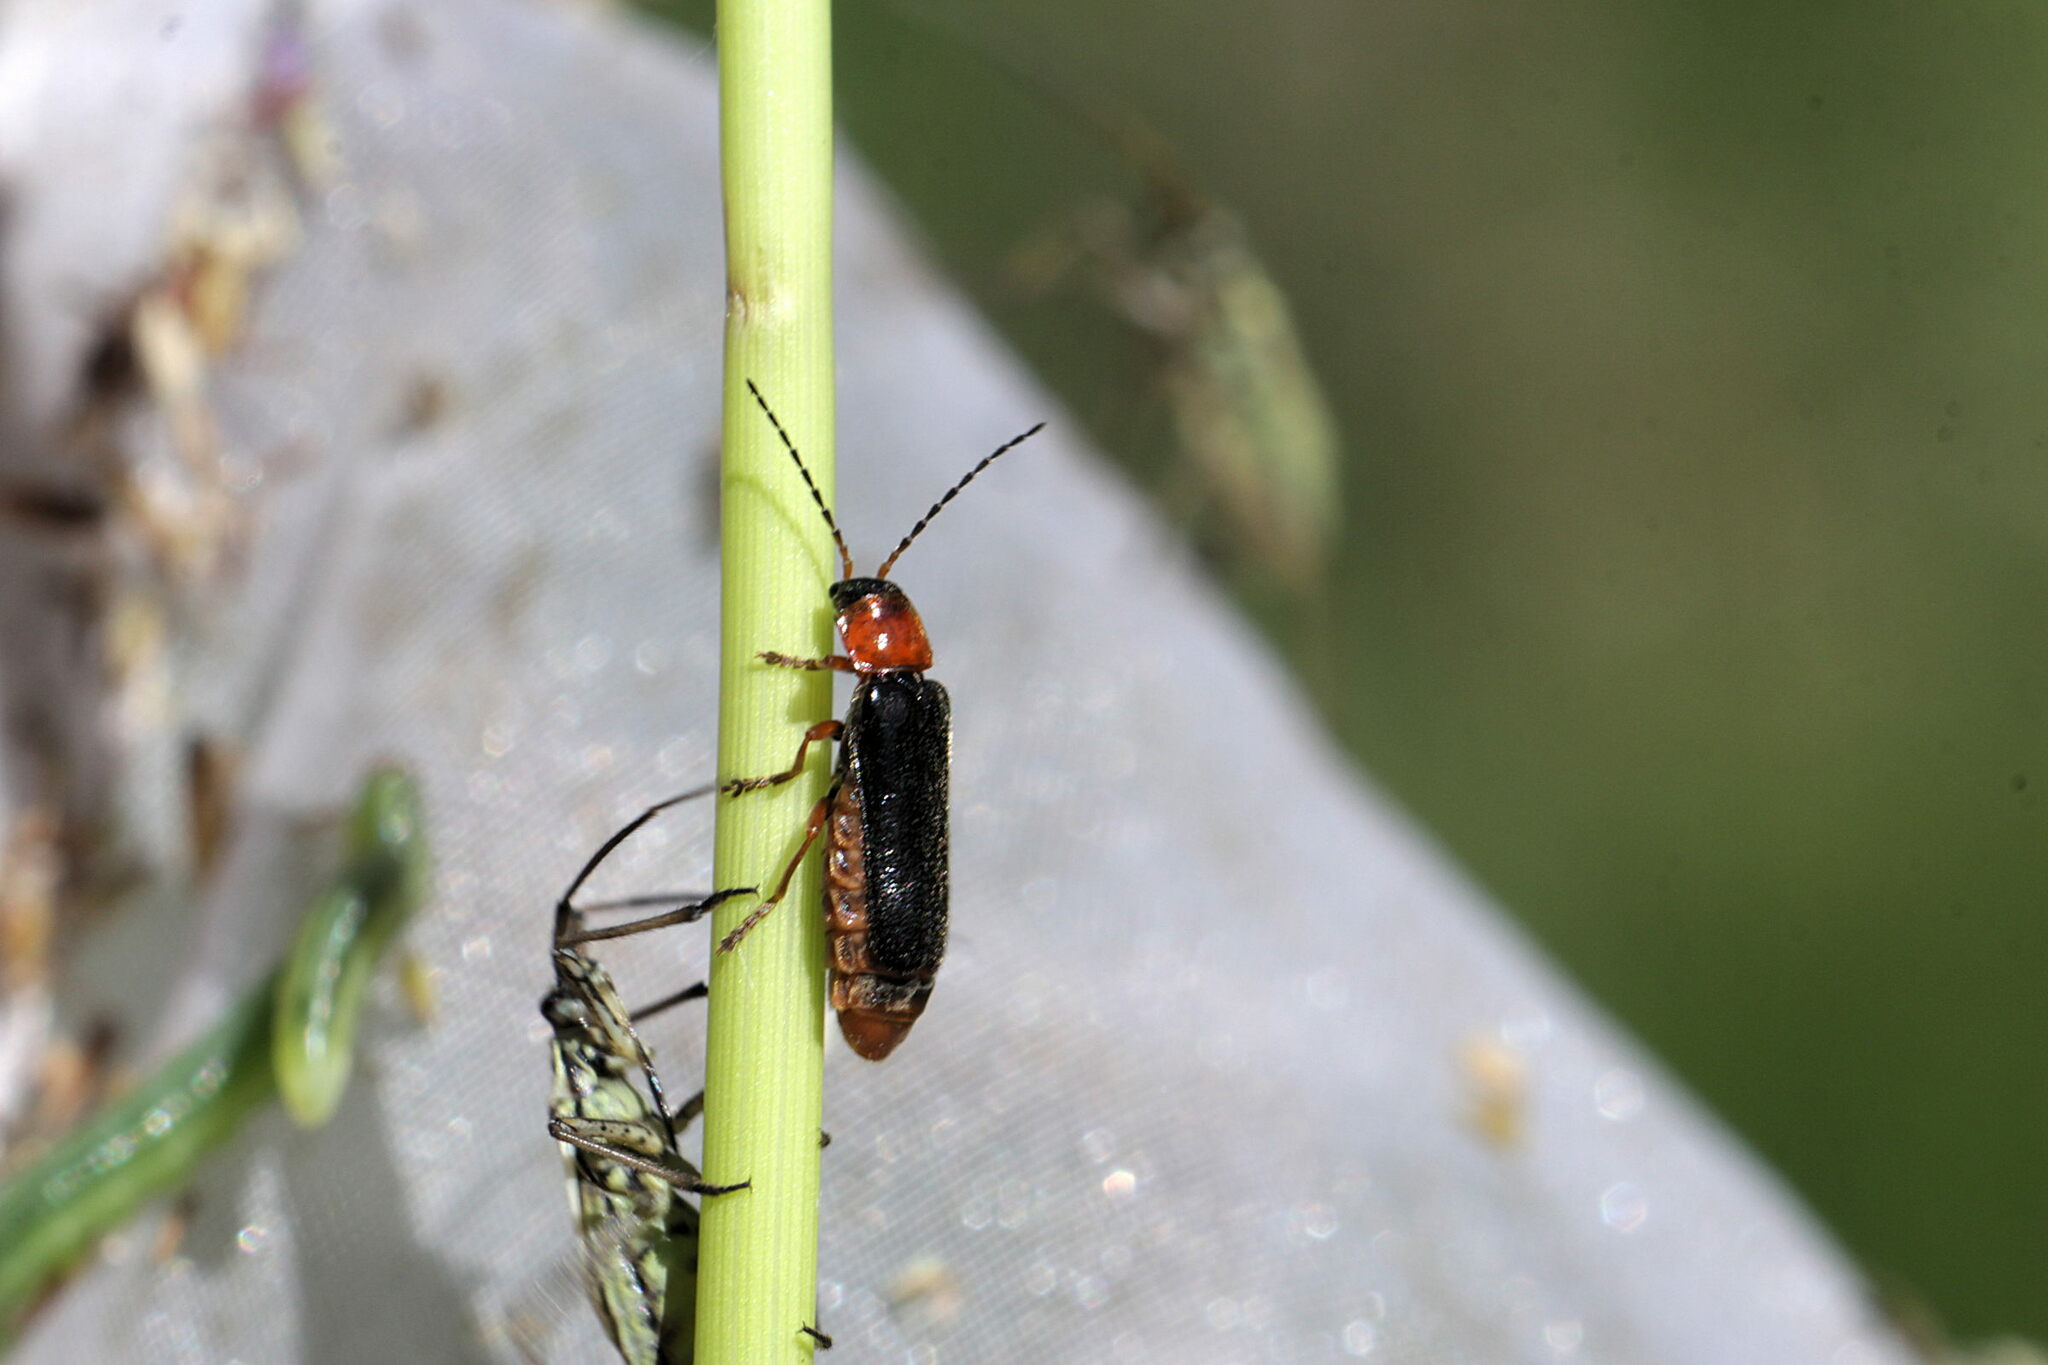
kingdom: Animalia
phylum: Arthropoda
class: Insecta
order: Coleoptera
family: Cantharidae
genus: Cantharis
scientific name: Cantharis flavilabris
